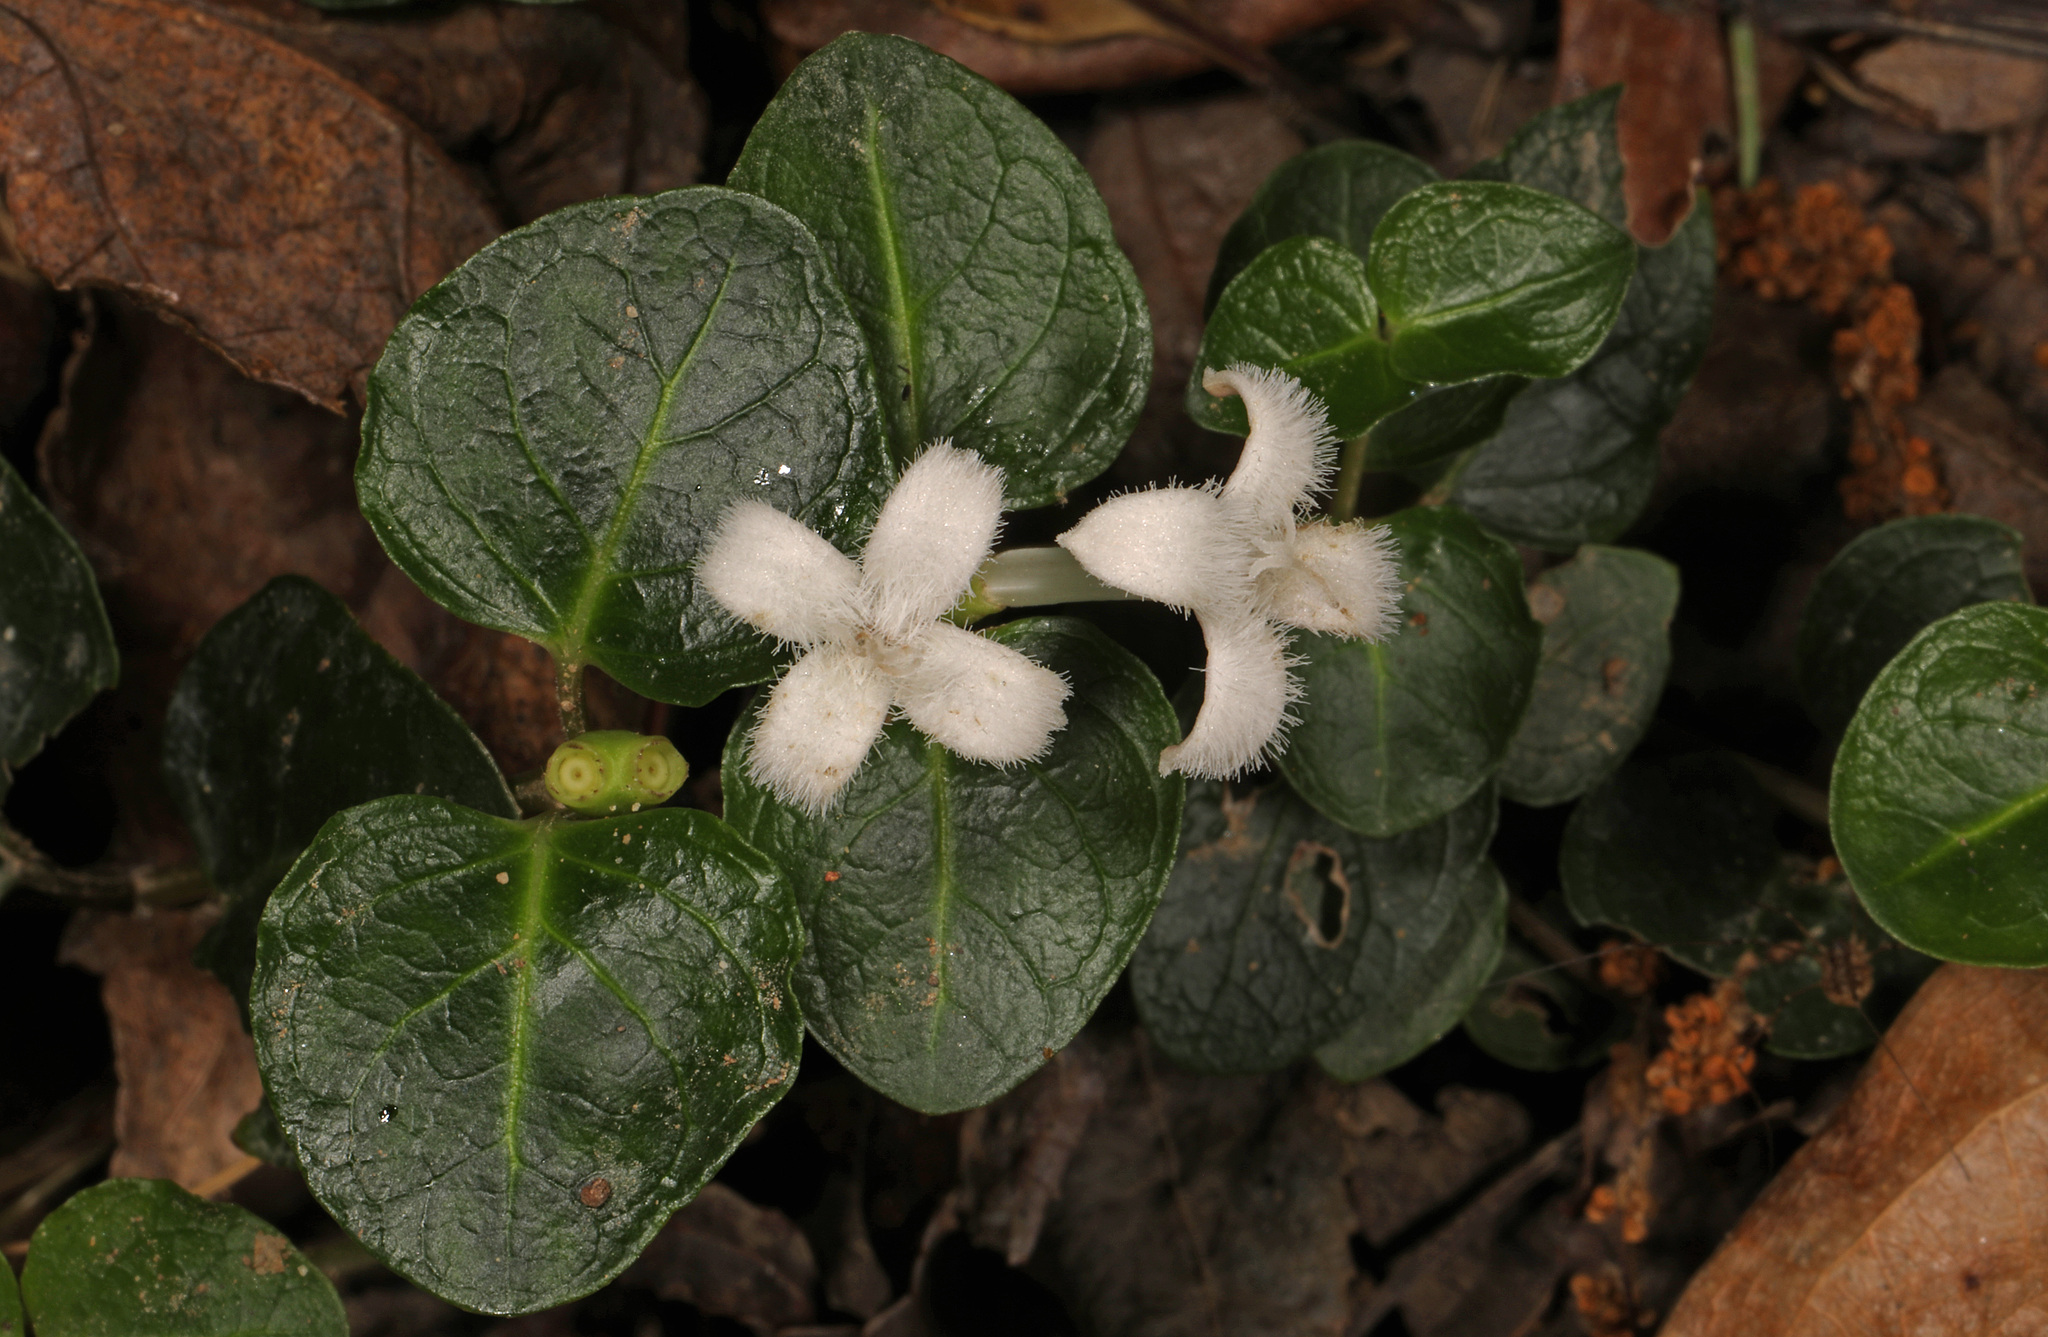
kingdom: Plantae
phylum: Tracheophyta
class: Magnoliopsida
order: Gentianales
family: Rubiaceae
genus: Mitchella
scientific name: Mitchella repens
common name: Partridge-berry
